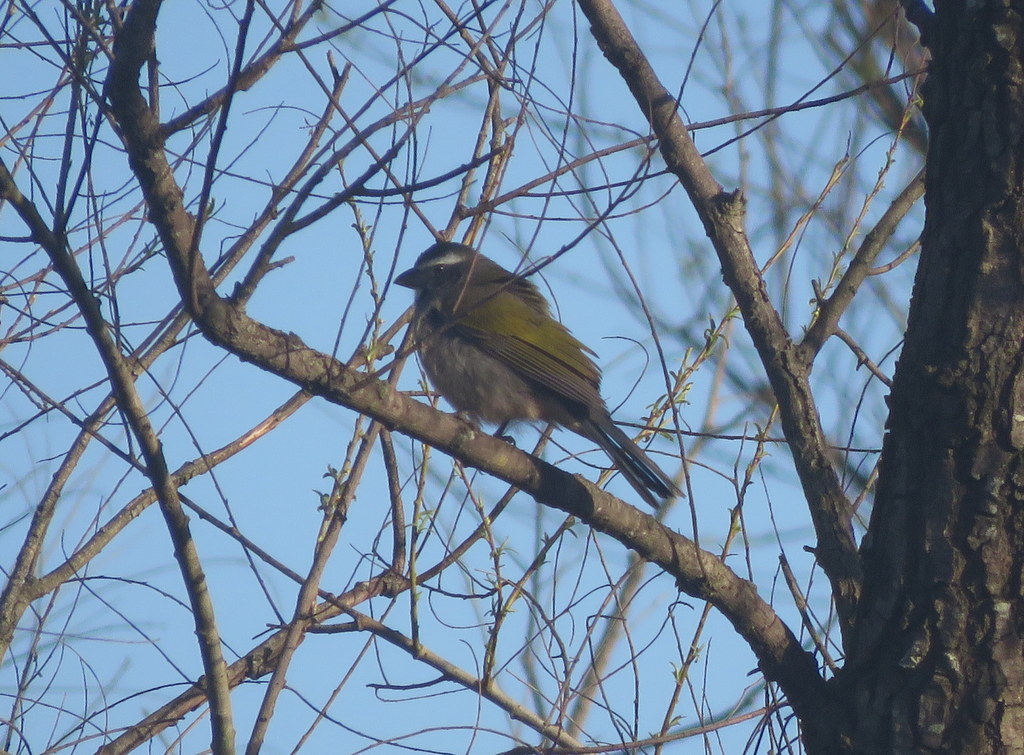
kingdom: Animalia
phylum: Chordata
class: Aves
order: Passeriformes
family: Thraupidae
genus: Saltator
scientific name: Saltator similis
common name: Green-winged saltator
